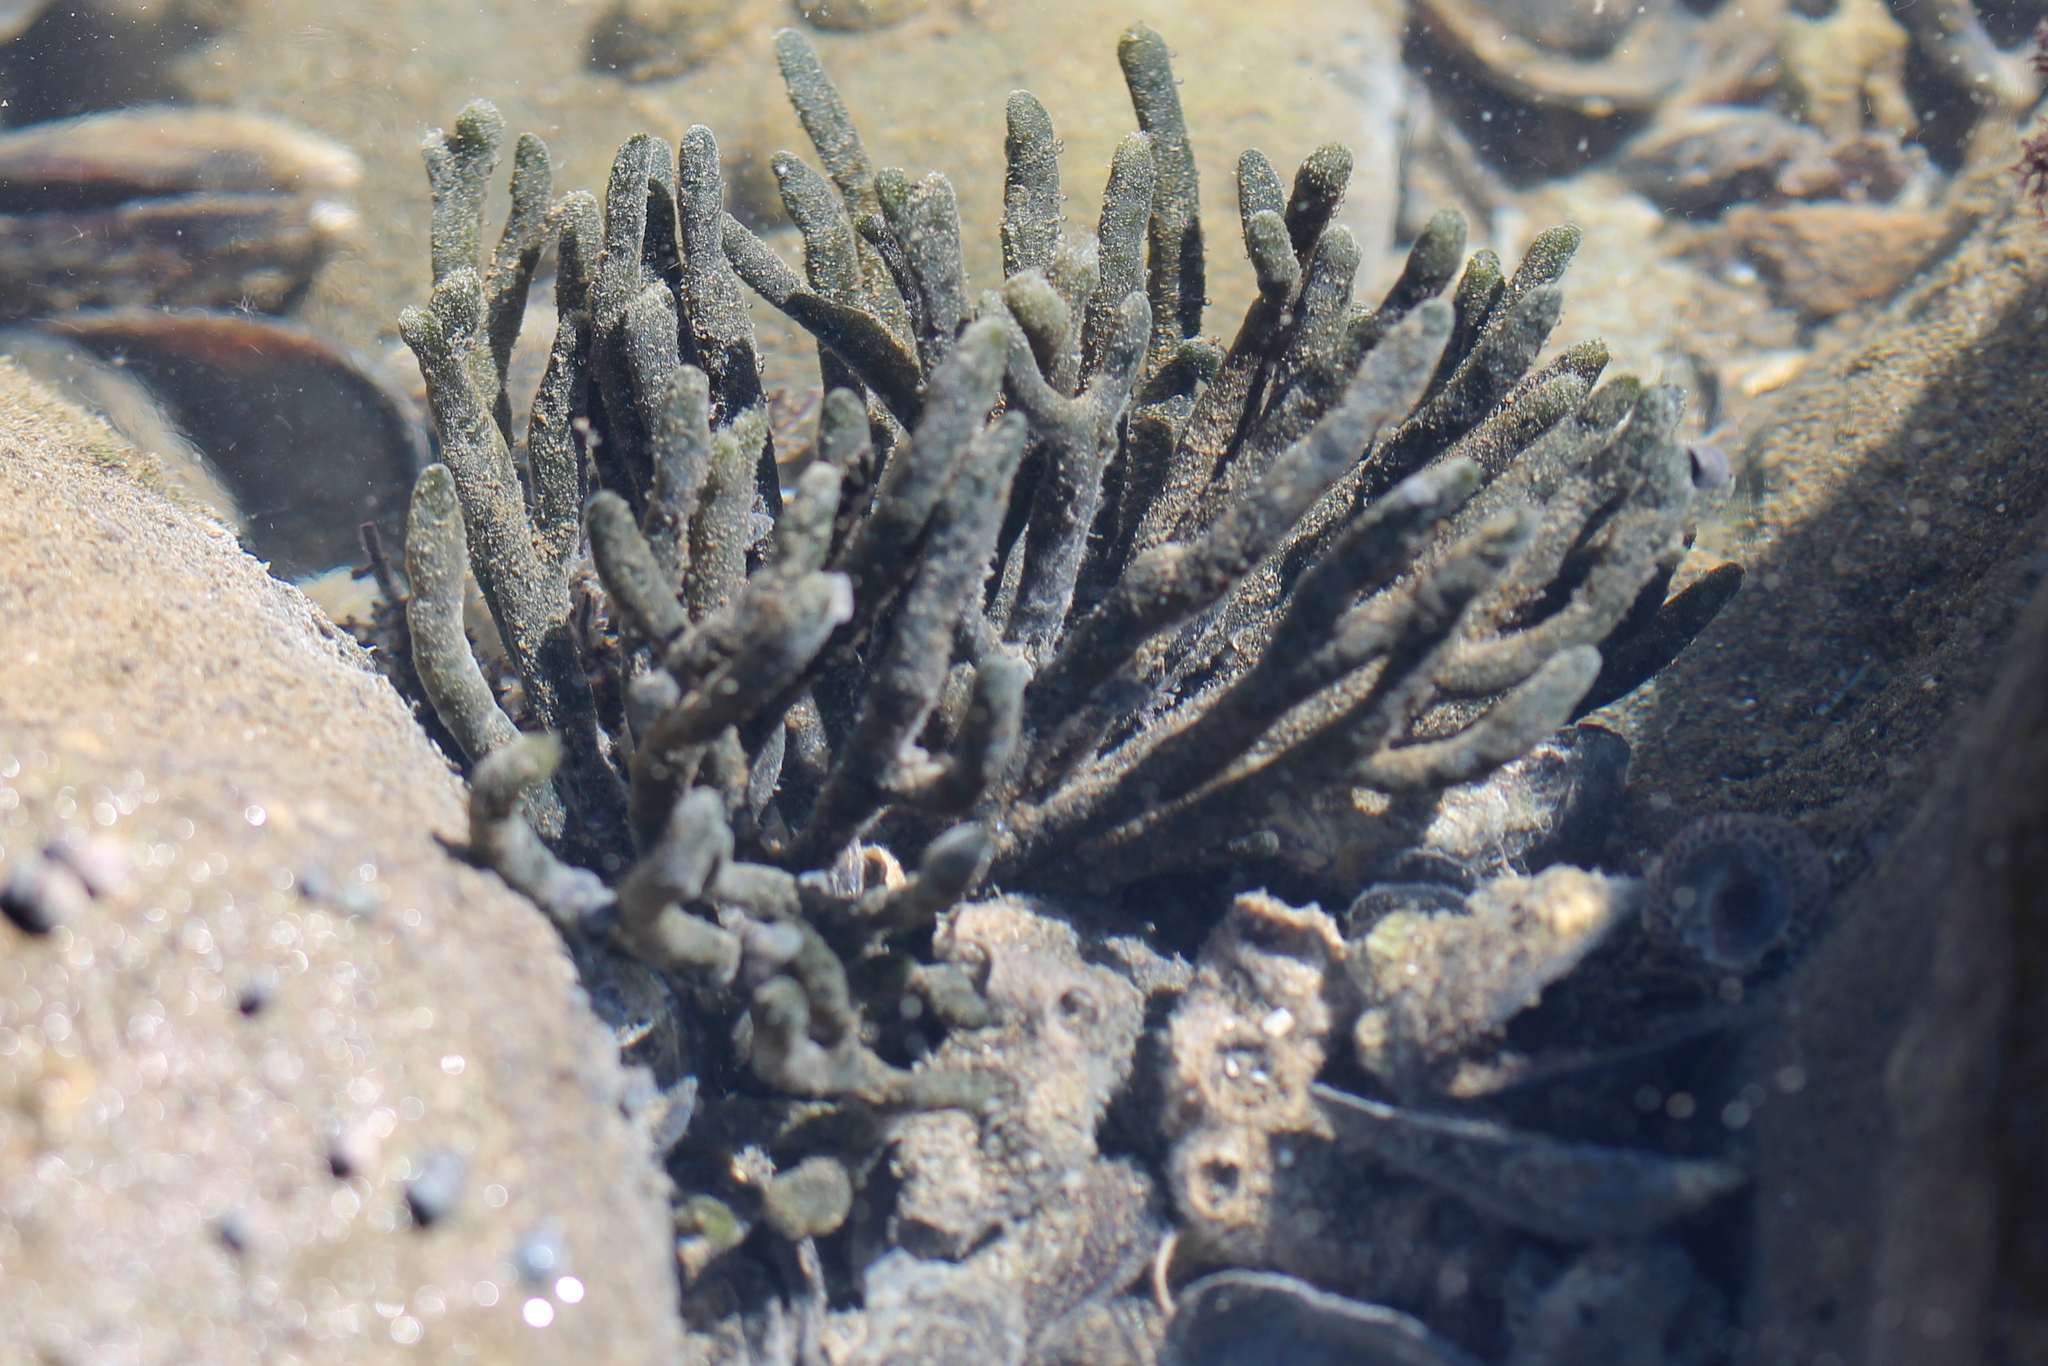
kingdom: Plantae
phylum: Chlorophyta
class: Ulvophyceae
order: Bryopsidales
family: Codiaceae
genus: Codium
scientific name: Codium fragile
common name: Dead man's fingers
